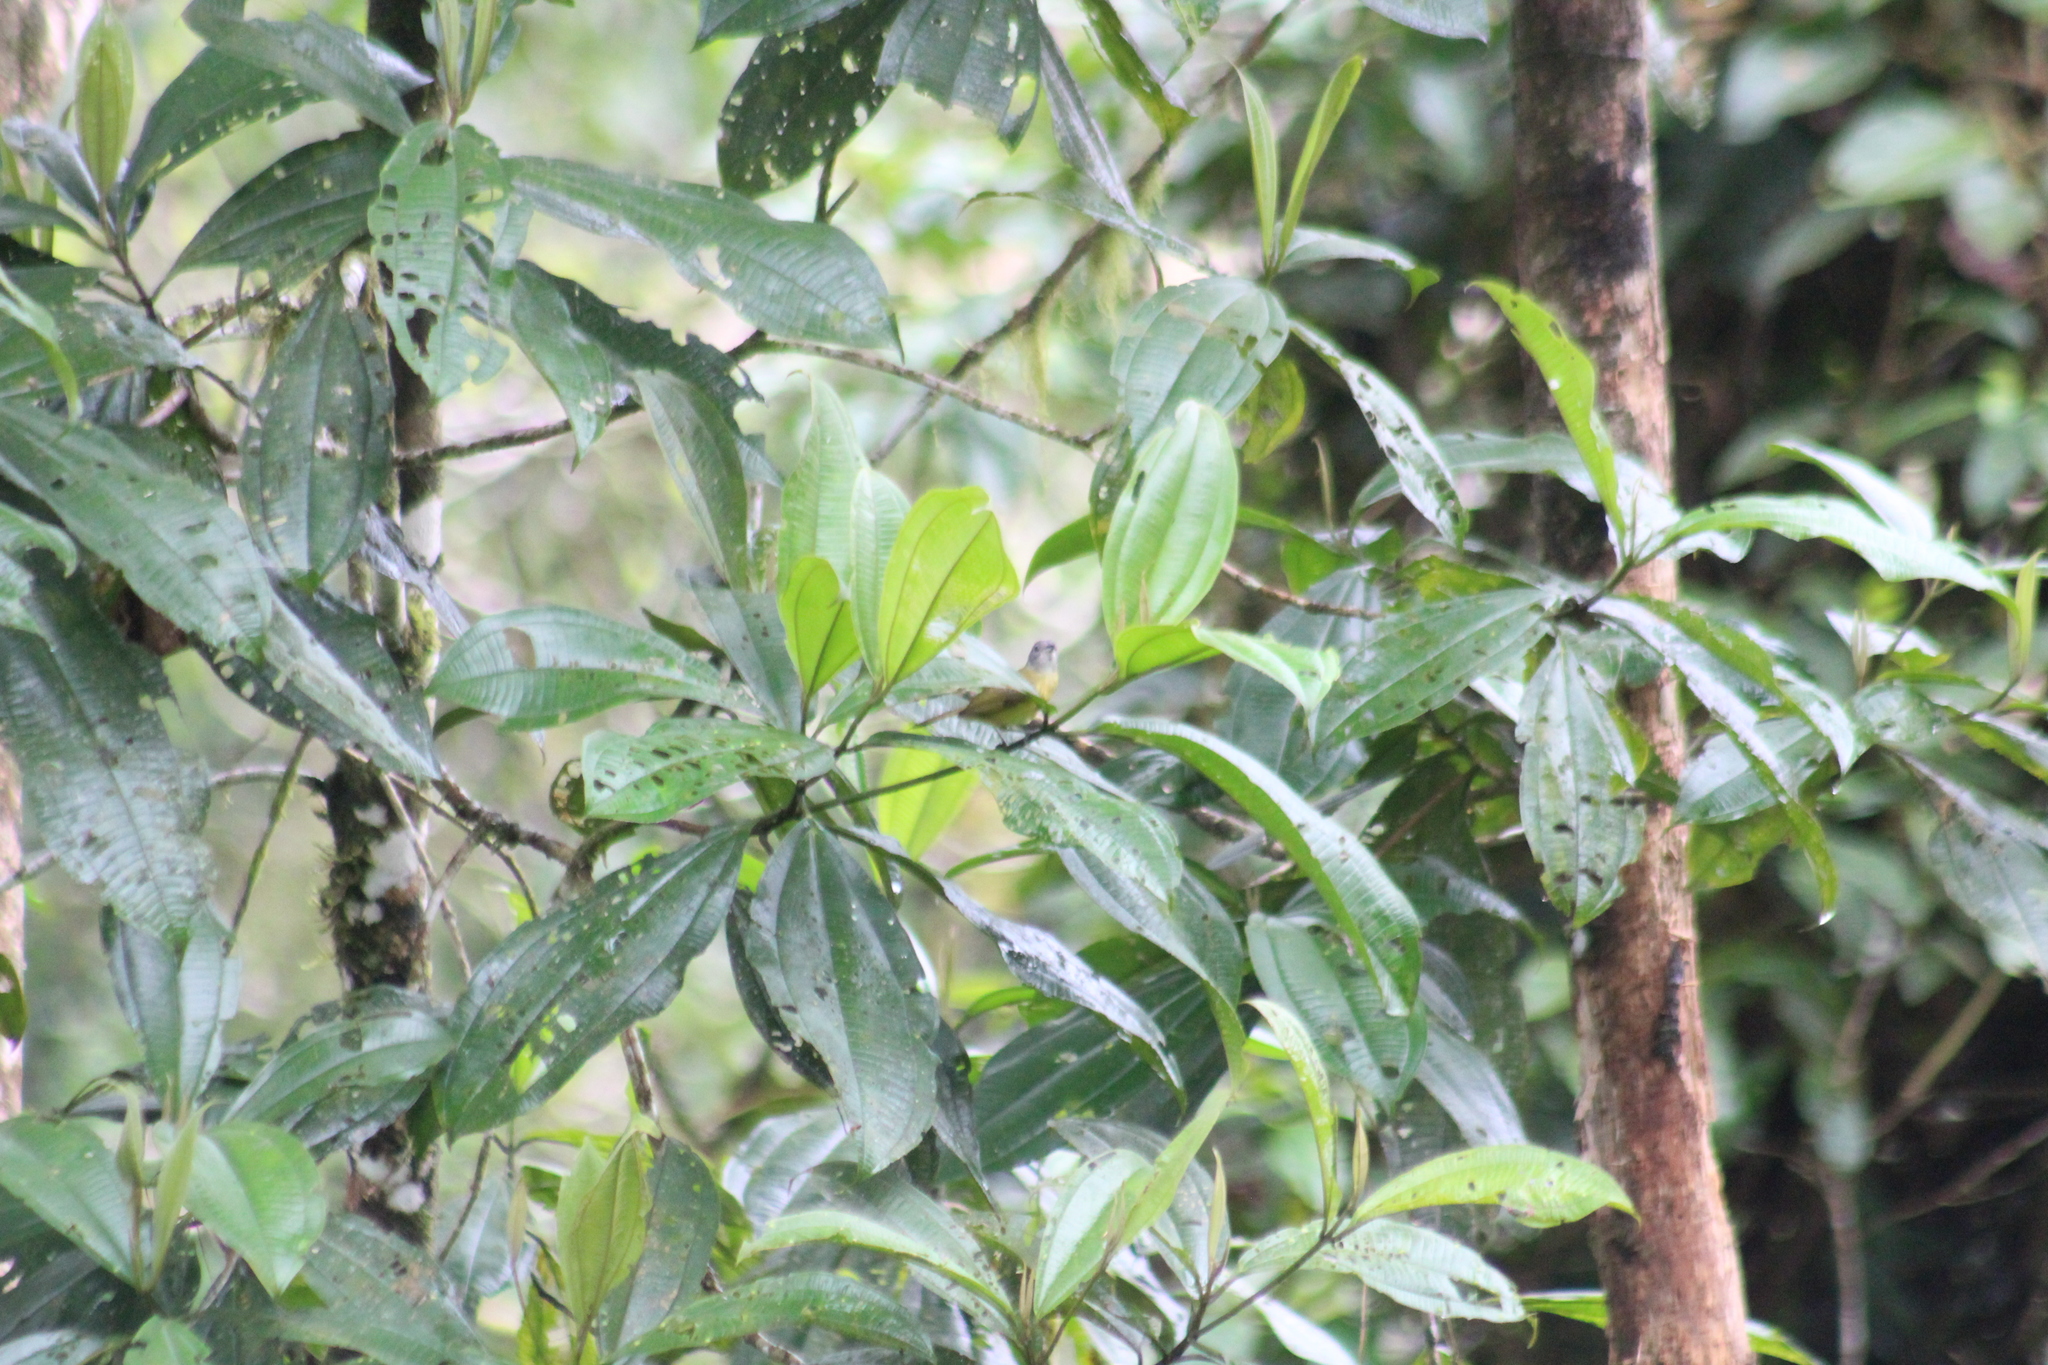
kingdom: Animalia
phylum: Chordata
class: Aves
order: Passeriformes
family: Thraupidae
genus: Loriotus
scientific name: Loriotus luctuosus
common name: White-shouldered tanager
